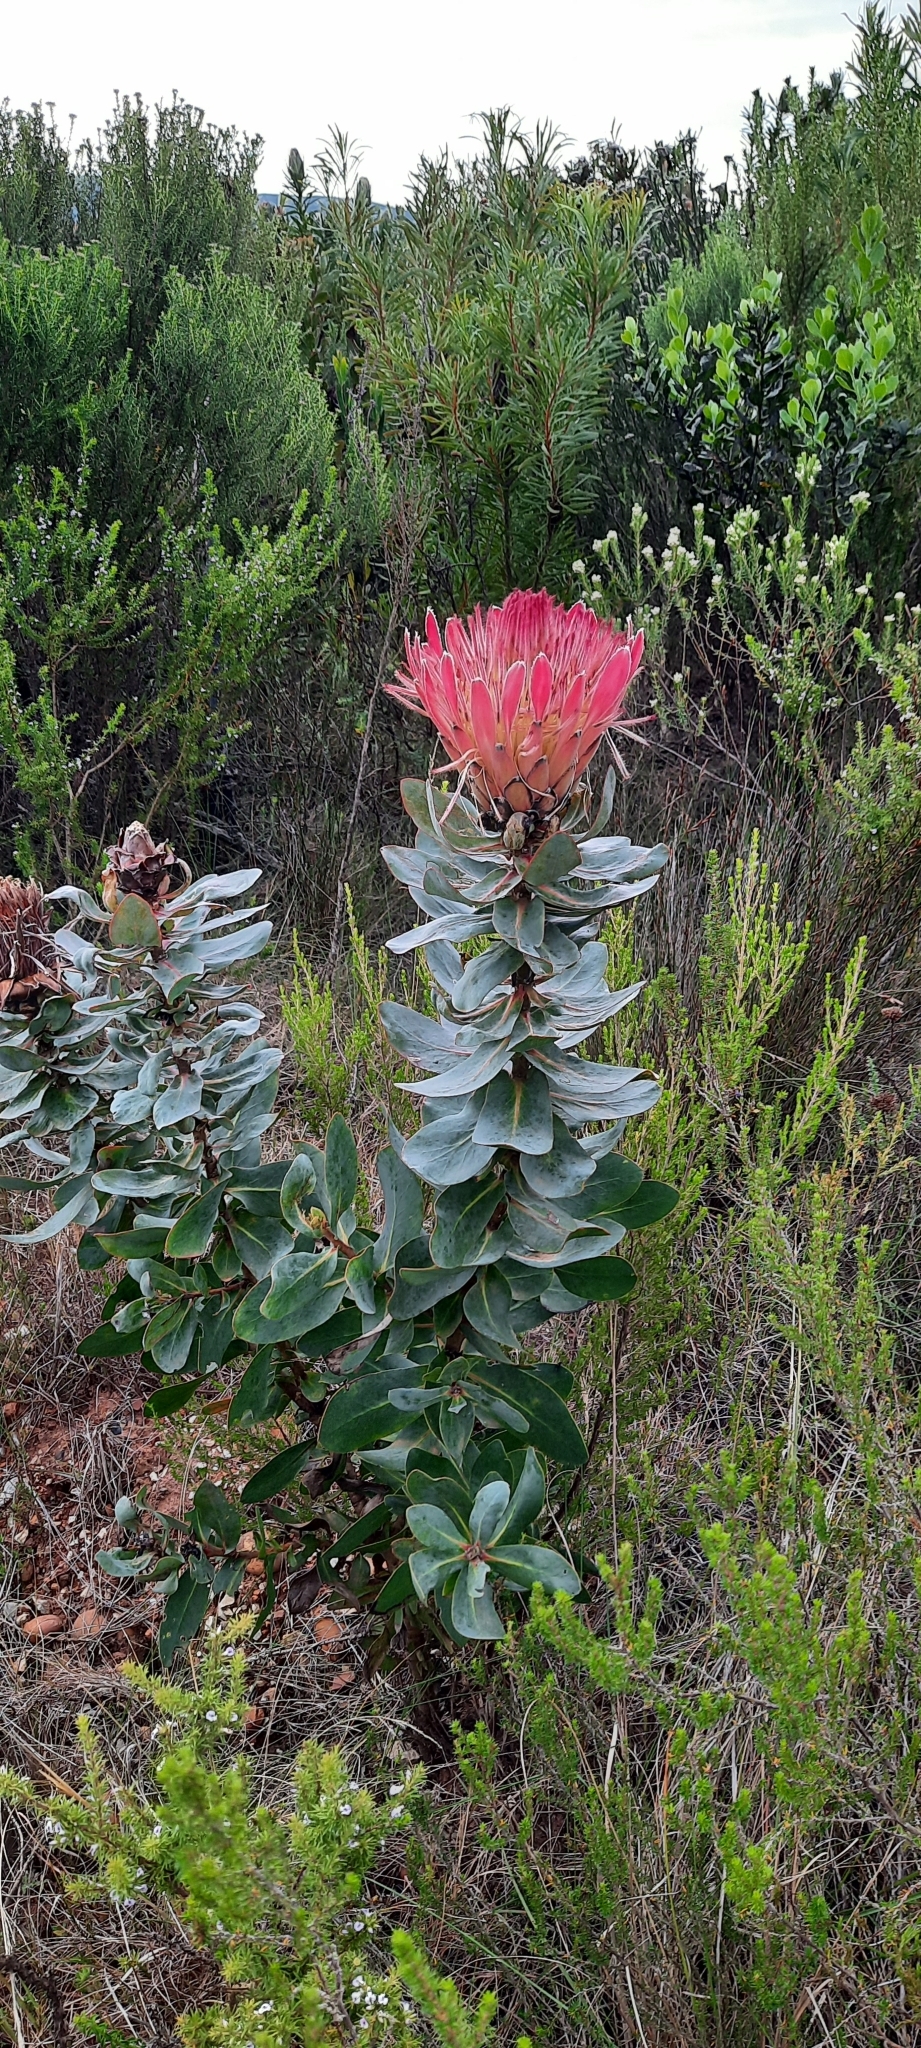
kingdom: Plantae
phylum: Tracheophyta
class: Magnoliopsida
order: Proteales
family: Proteaceae
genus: Protea
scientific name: Protea eximia
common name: Broad-leaved sugarbush
